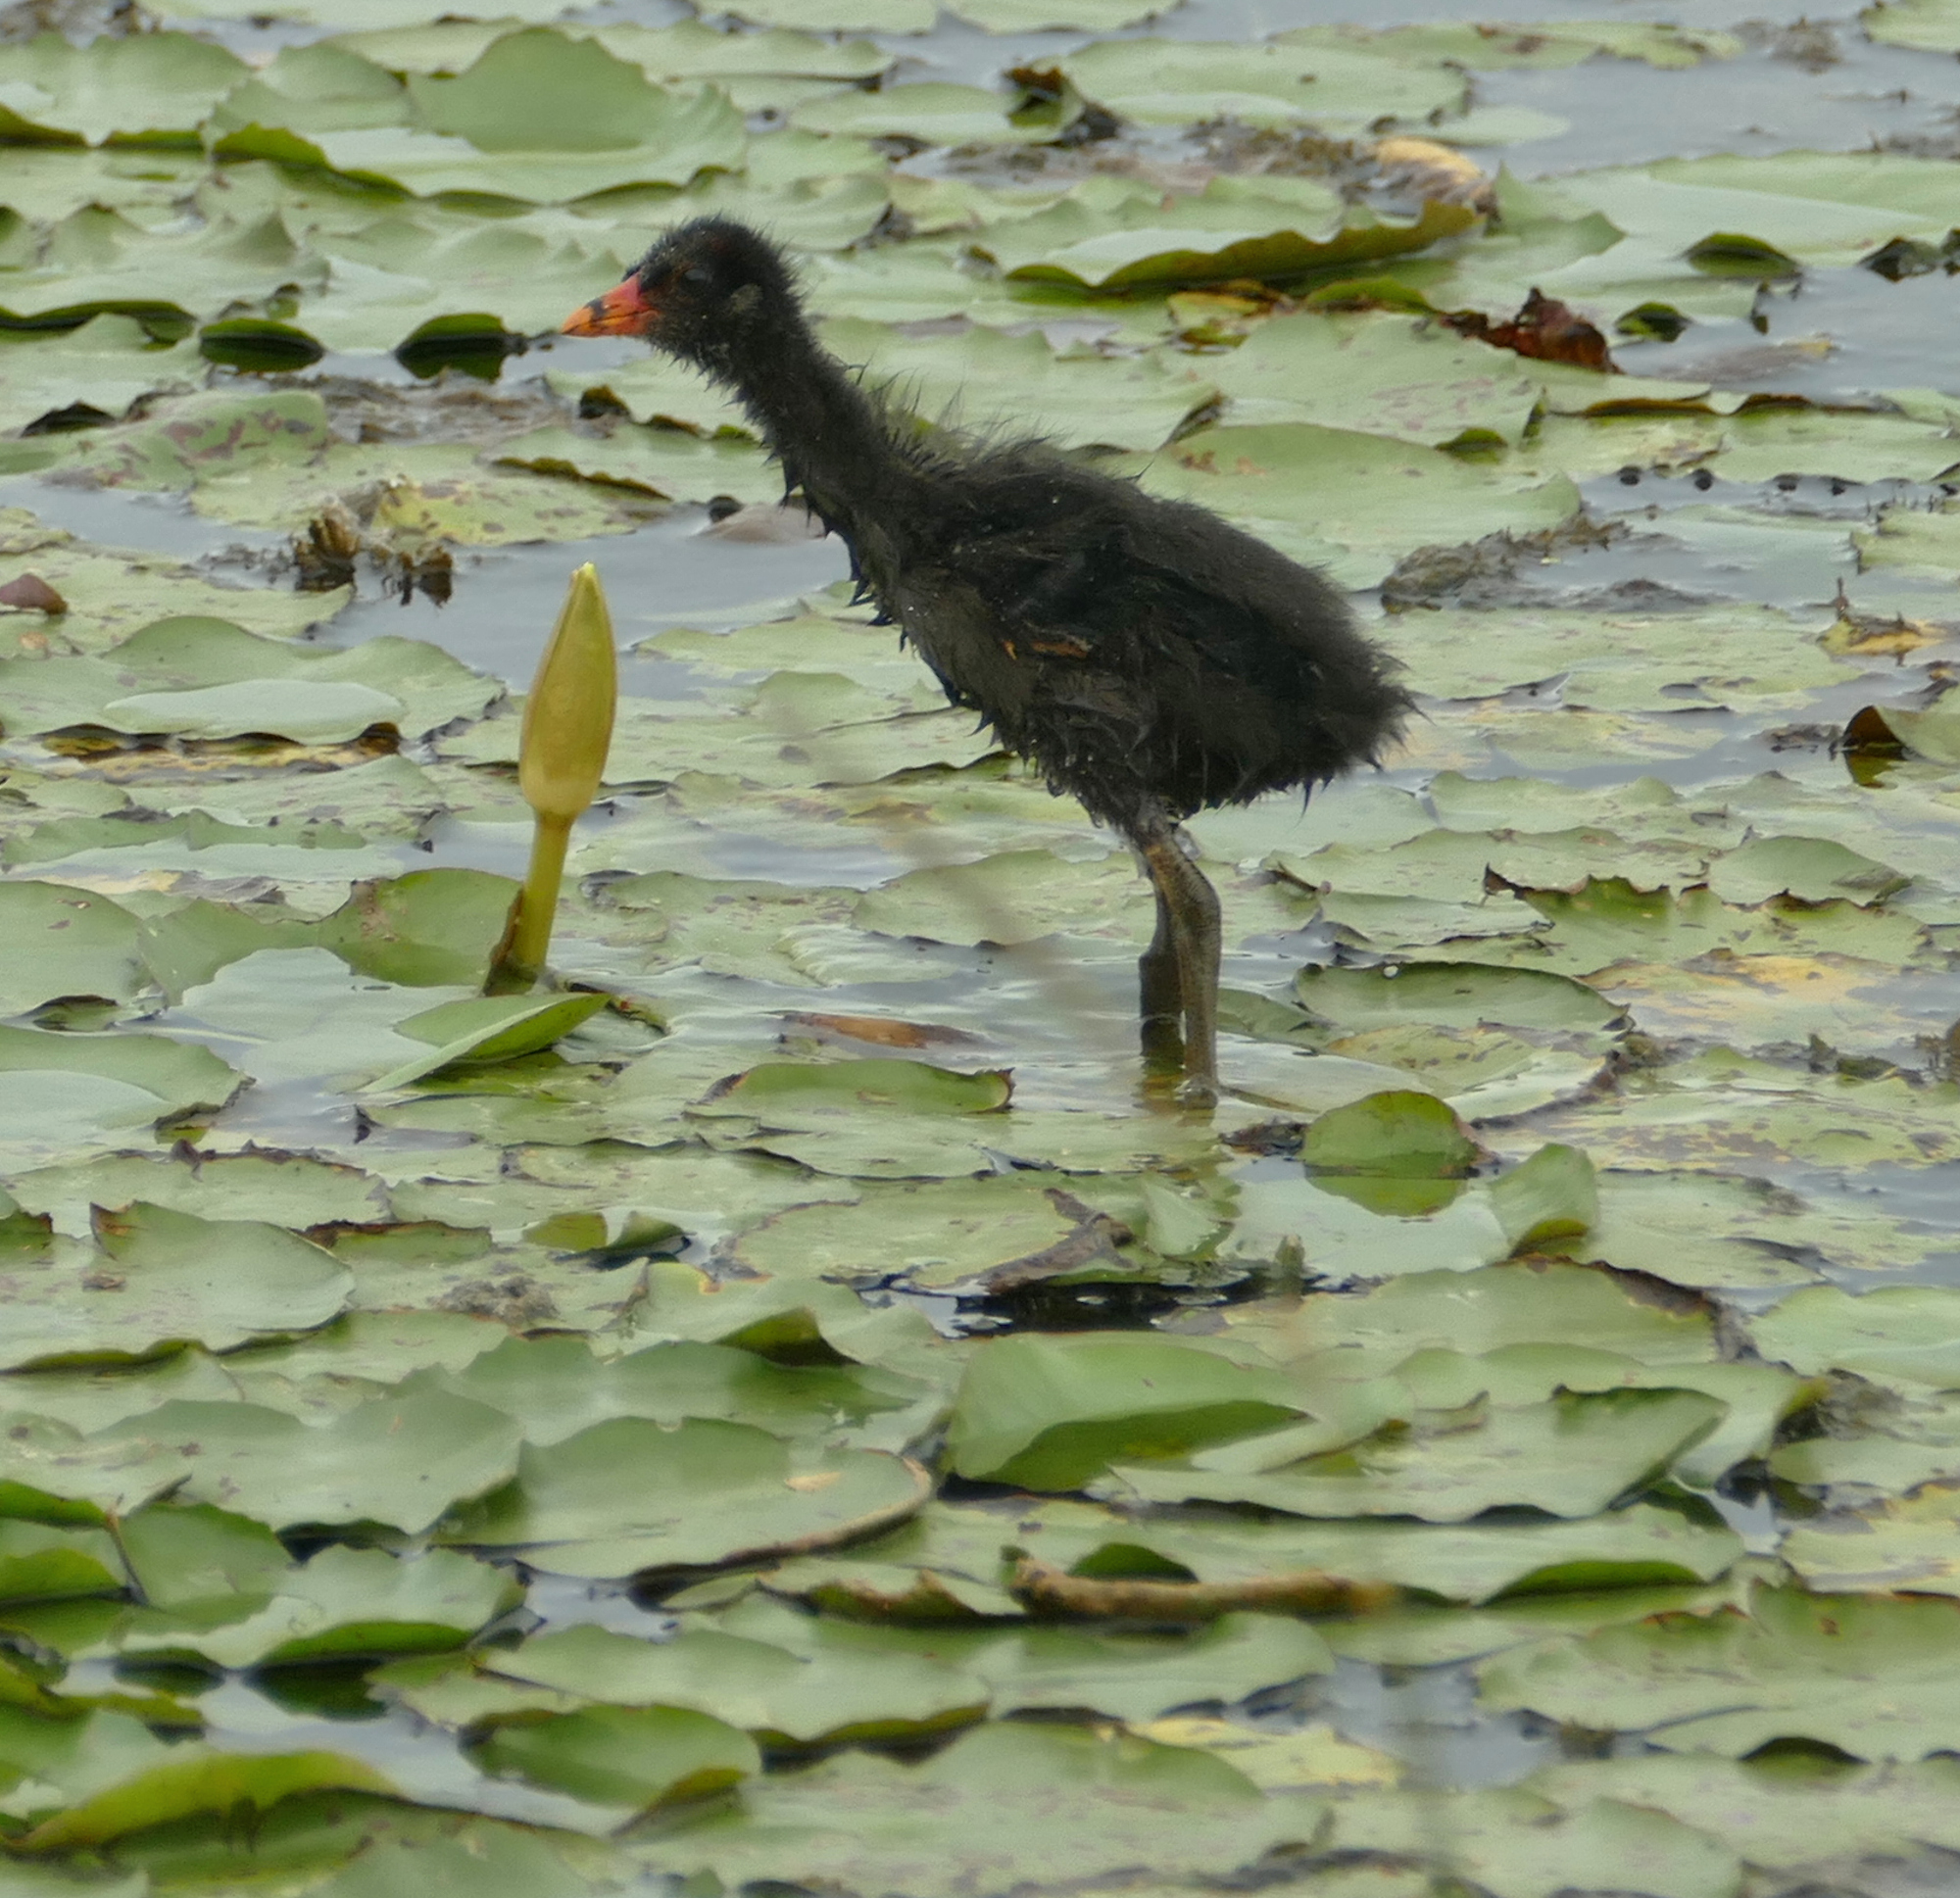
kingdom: Animalia
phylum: Chordata
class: Aves
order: Gruiformes
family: Rallidae
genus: Gallinula
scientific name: Gallinula chloropus
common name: Common moorhen
